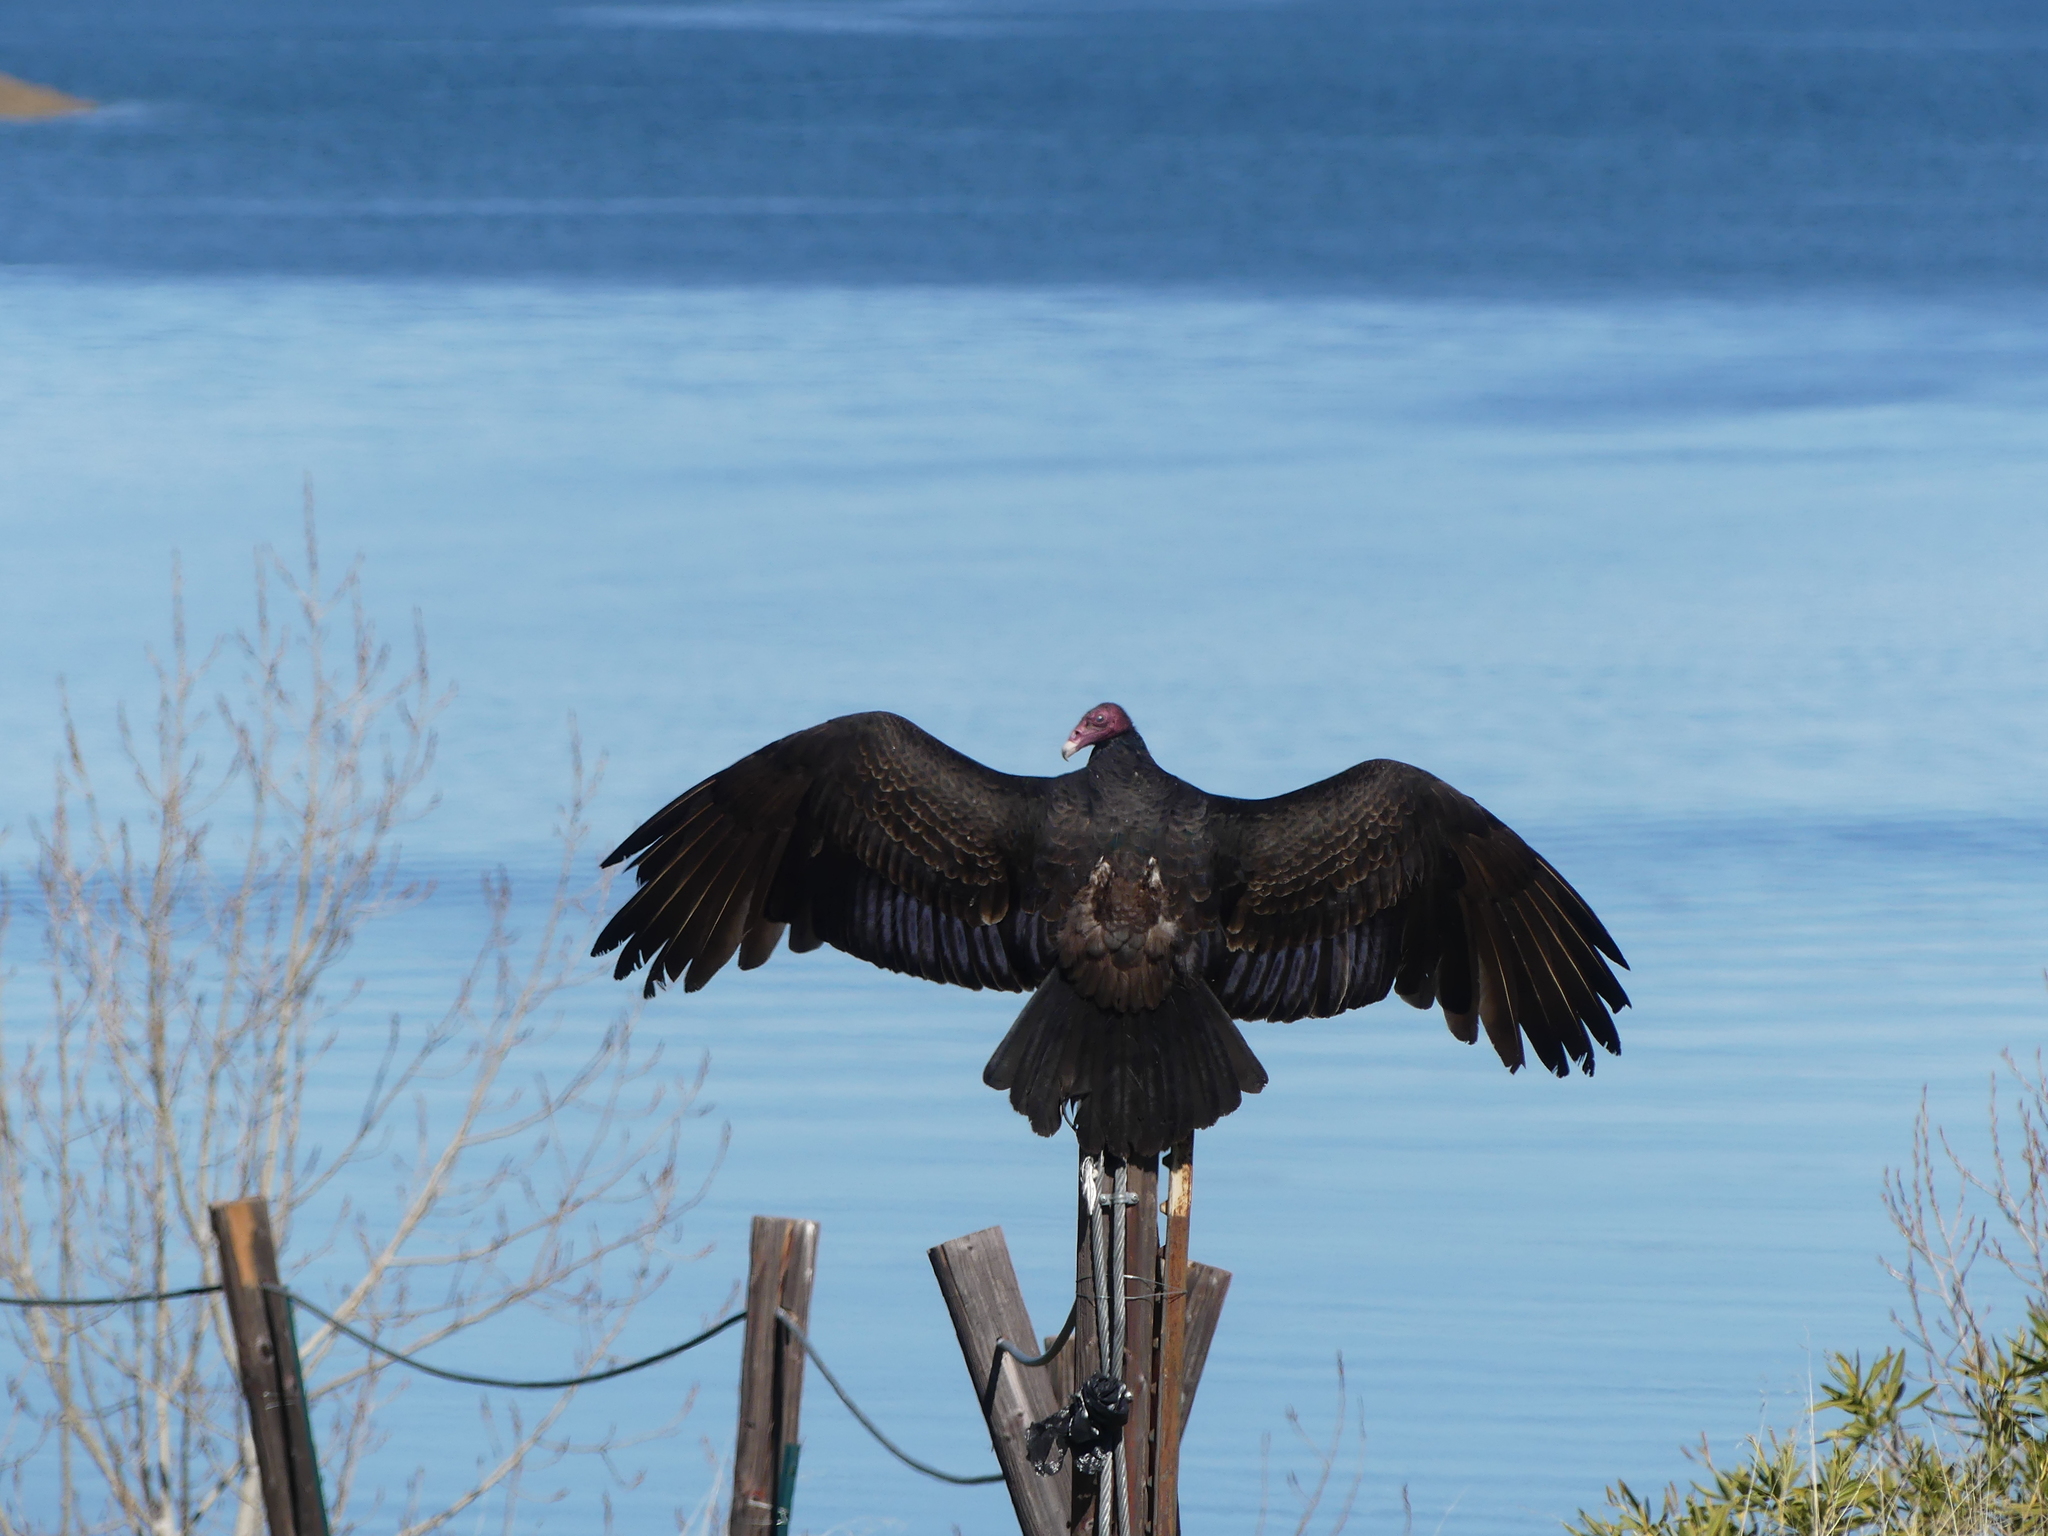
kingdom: Animalia
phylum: Chordata
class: Aves
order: Accipitriformes
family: Cathartidae
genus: Cathartes
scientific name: Cathartes aura
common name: Turkey vulture
